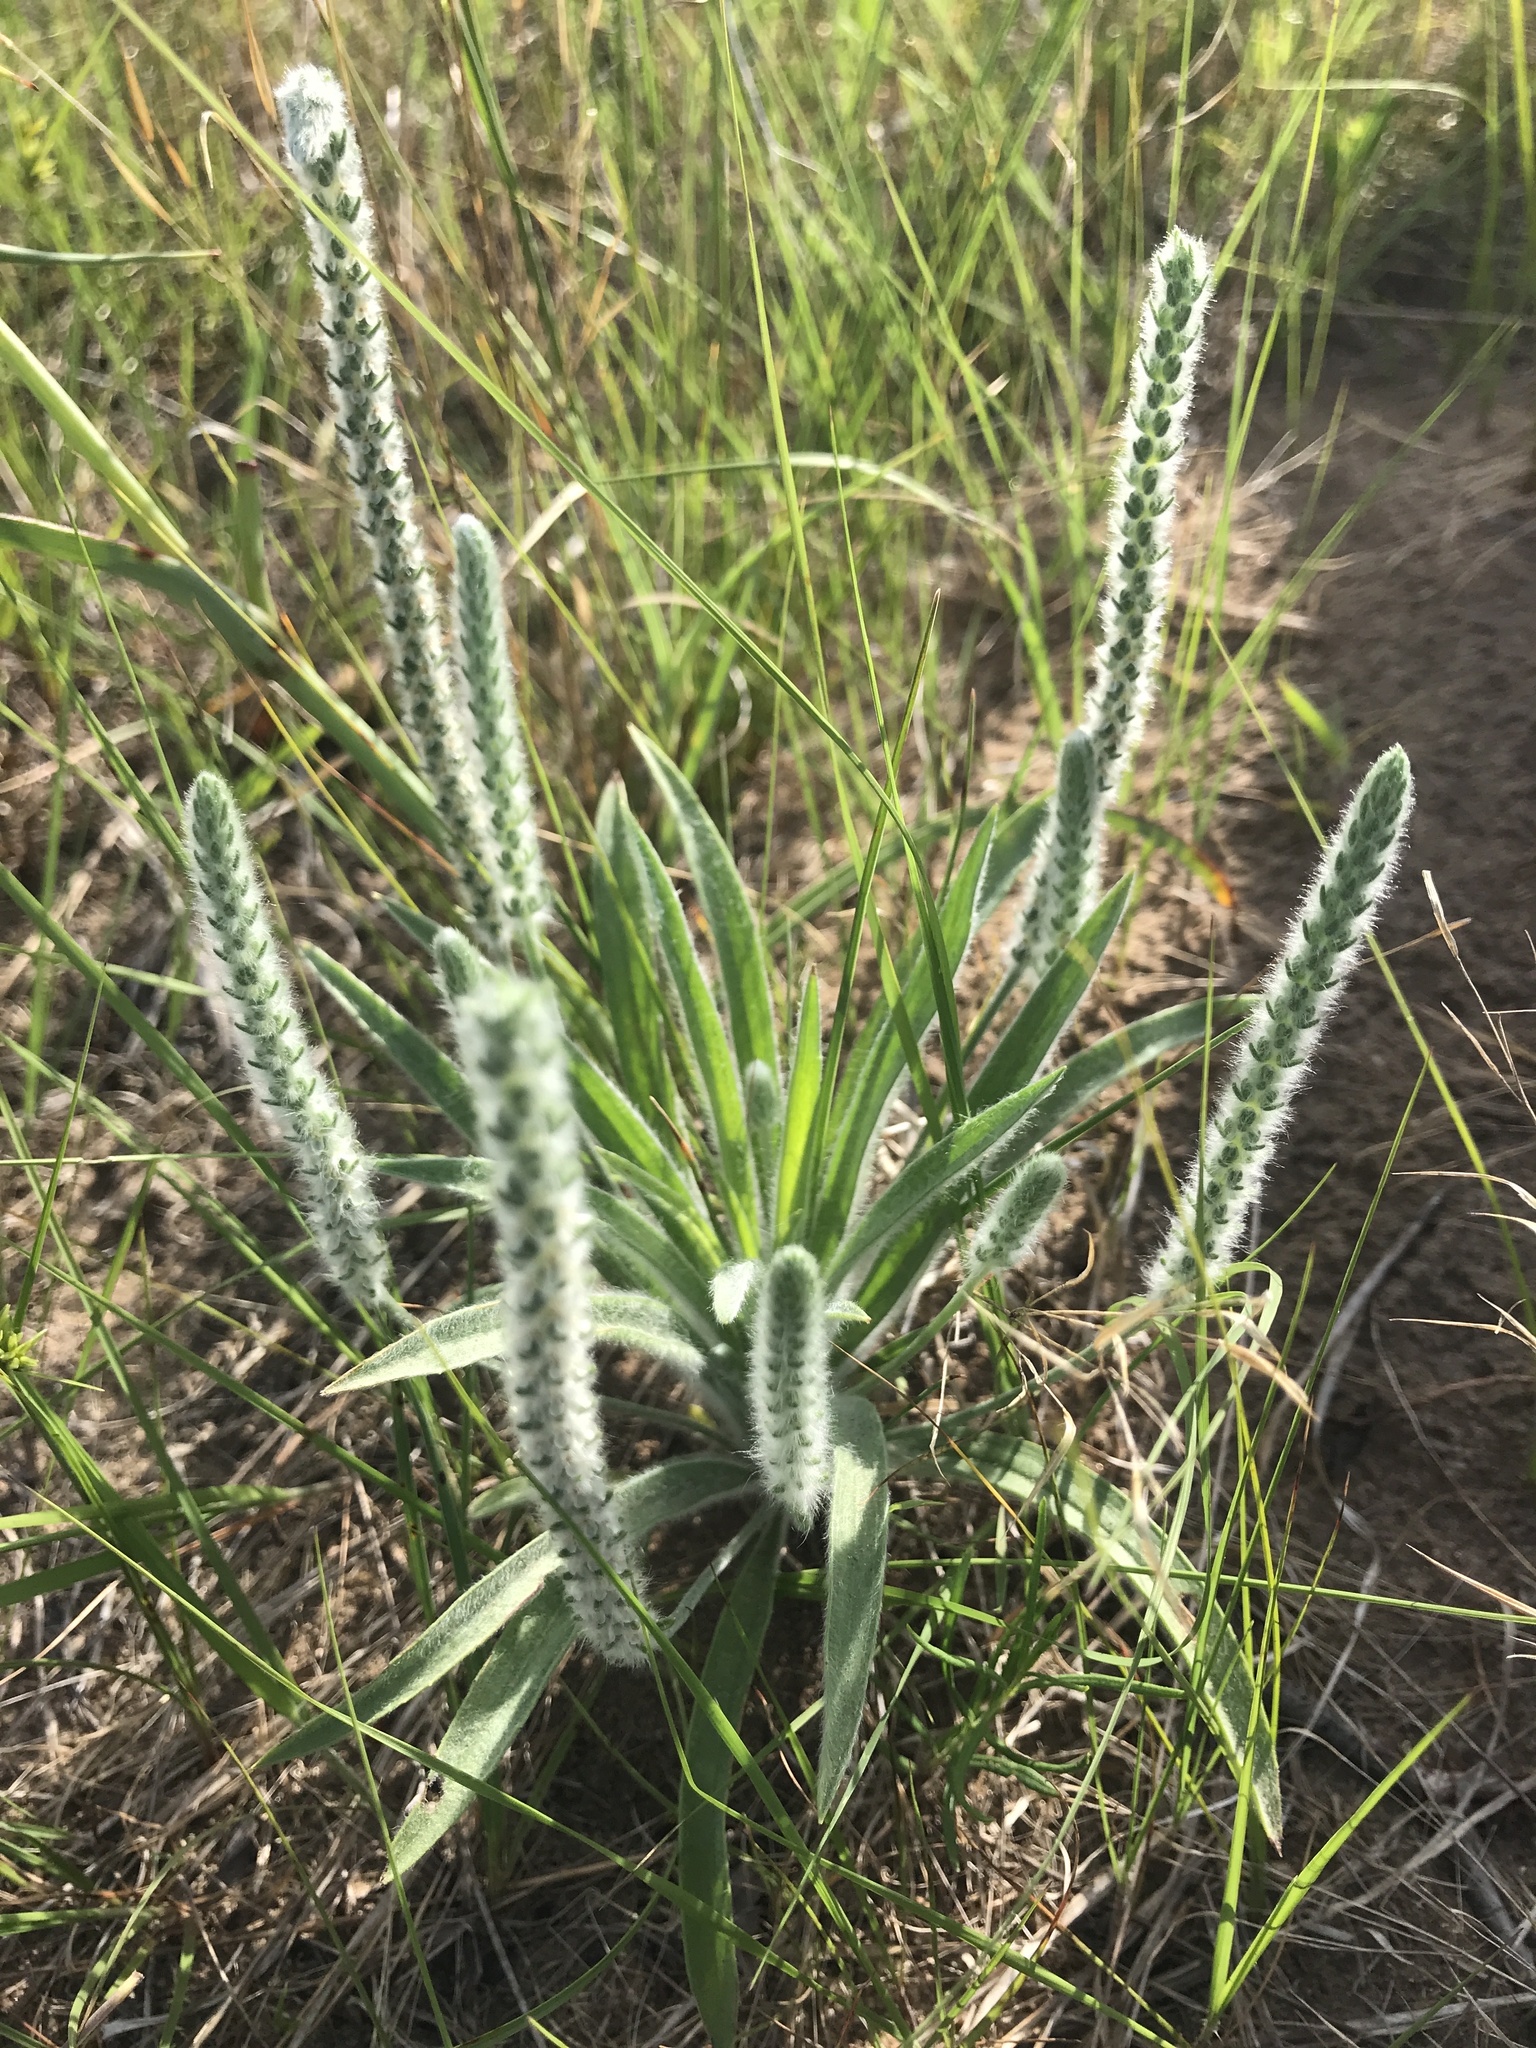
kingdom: Plantae
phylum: Tracheophyta
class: Magnoliopsida
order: Lamiales
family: Plantaginaceae
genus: Plantago
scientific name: Plantago patagonica
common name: Patagonia indian-wheat
